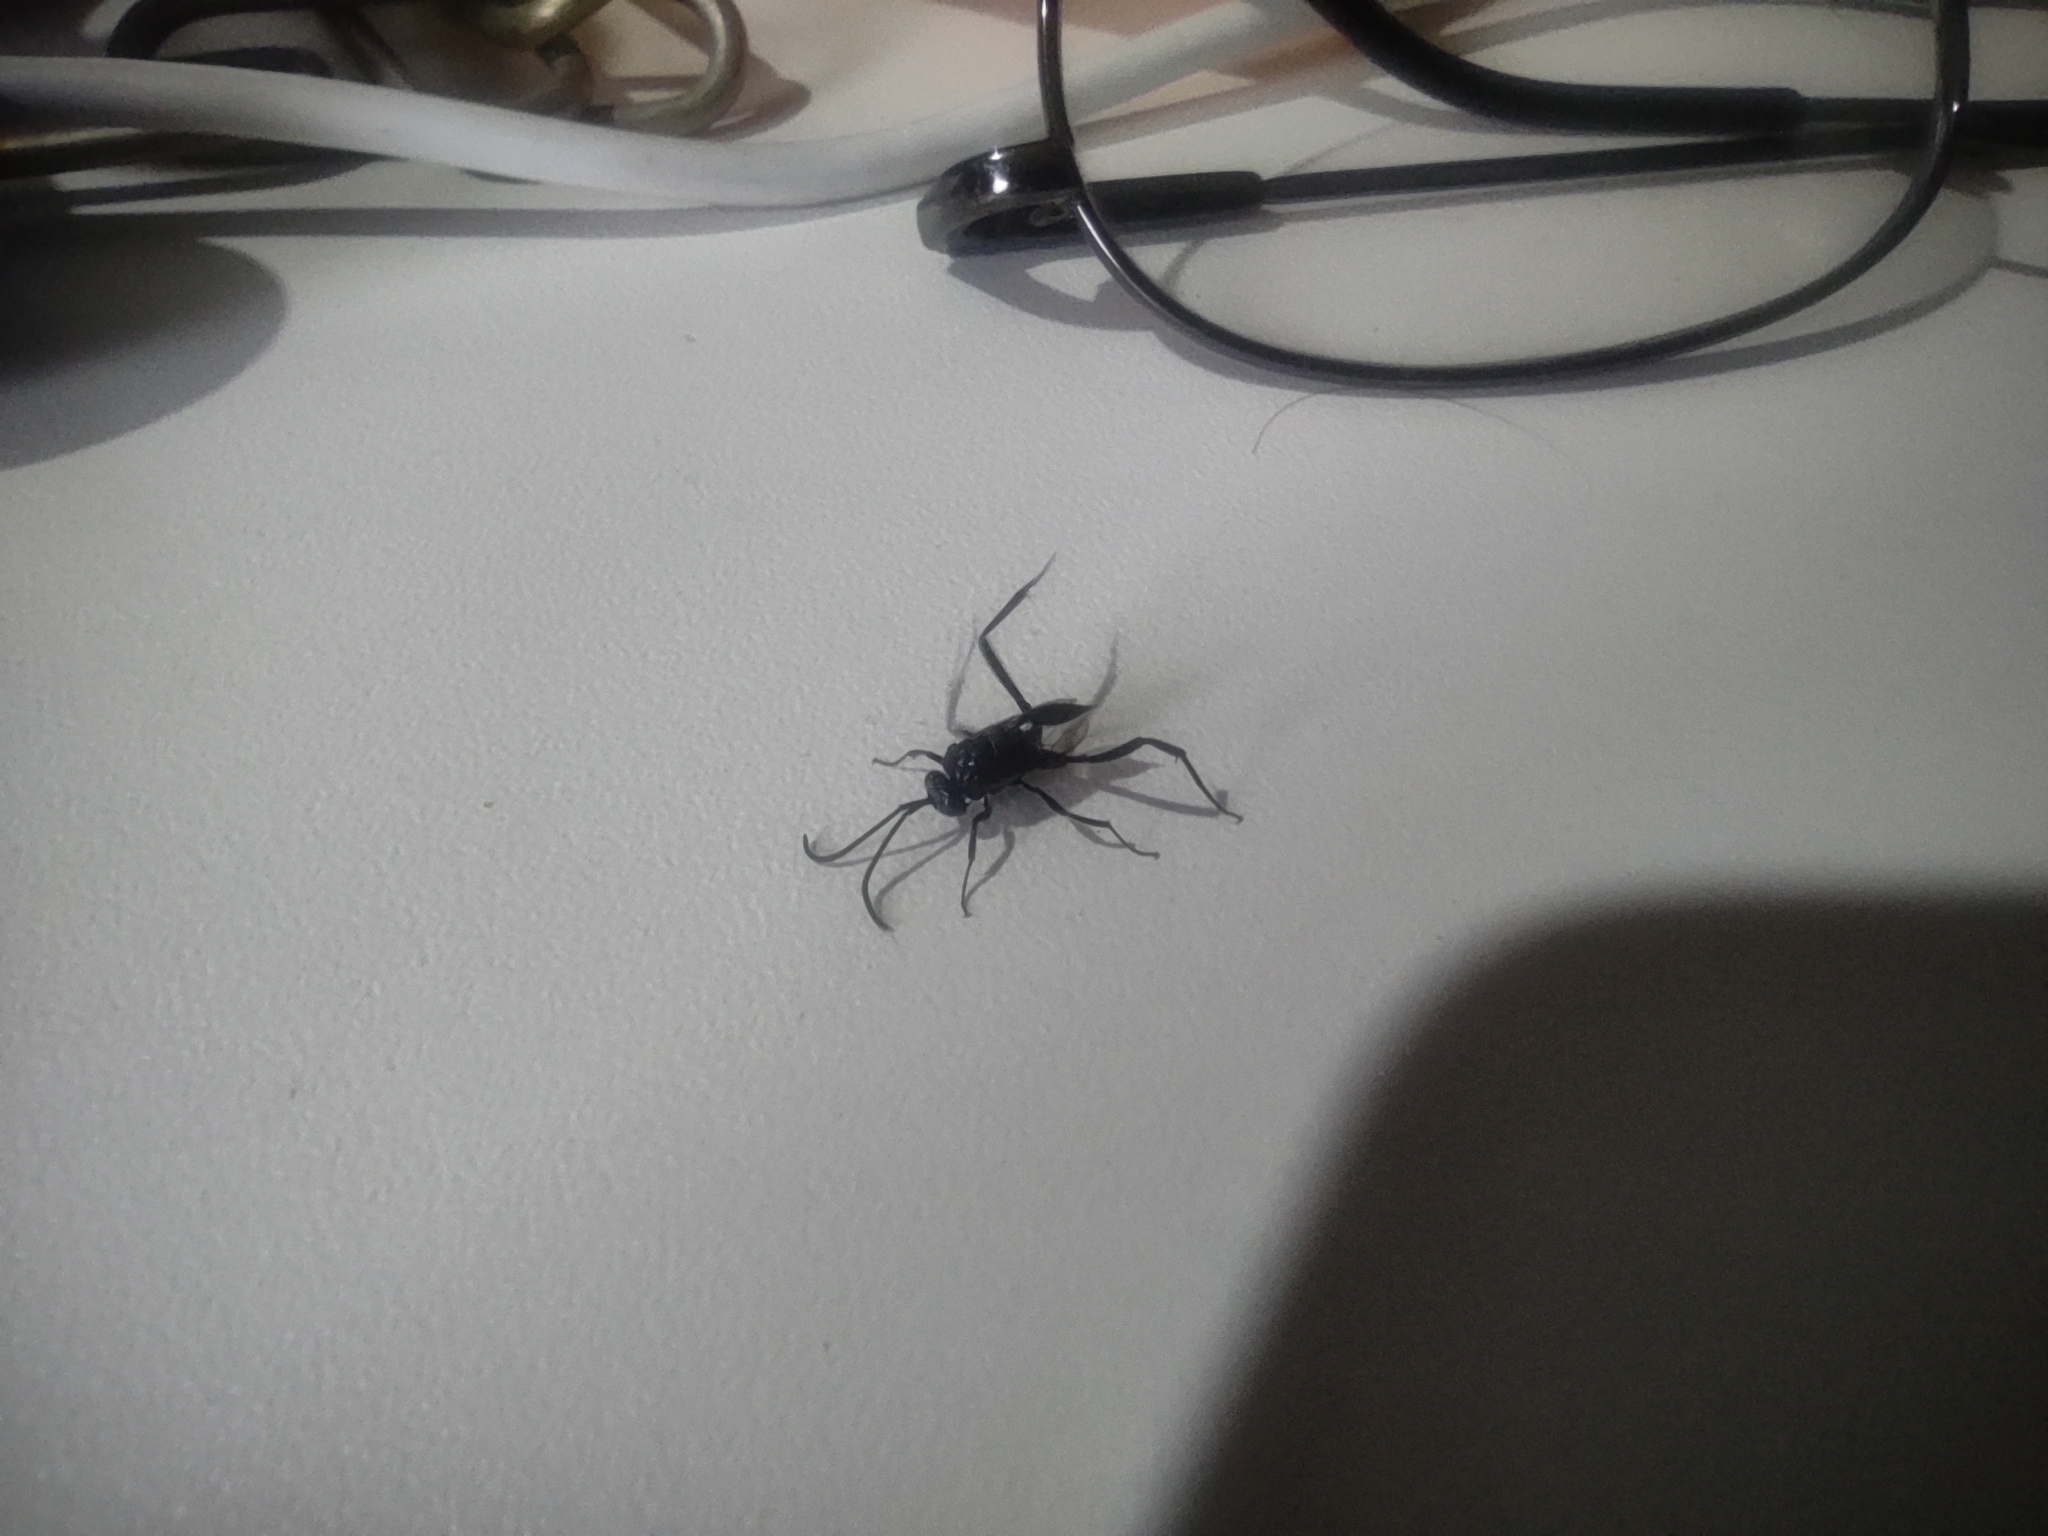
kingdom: Animalia
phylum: Arthropoda
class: Insecta
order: Hymenoptera
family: Evaniidae
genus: Evania
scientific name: Evania appendigaster
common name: Ensign wasp
